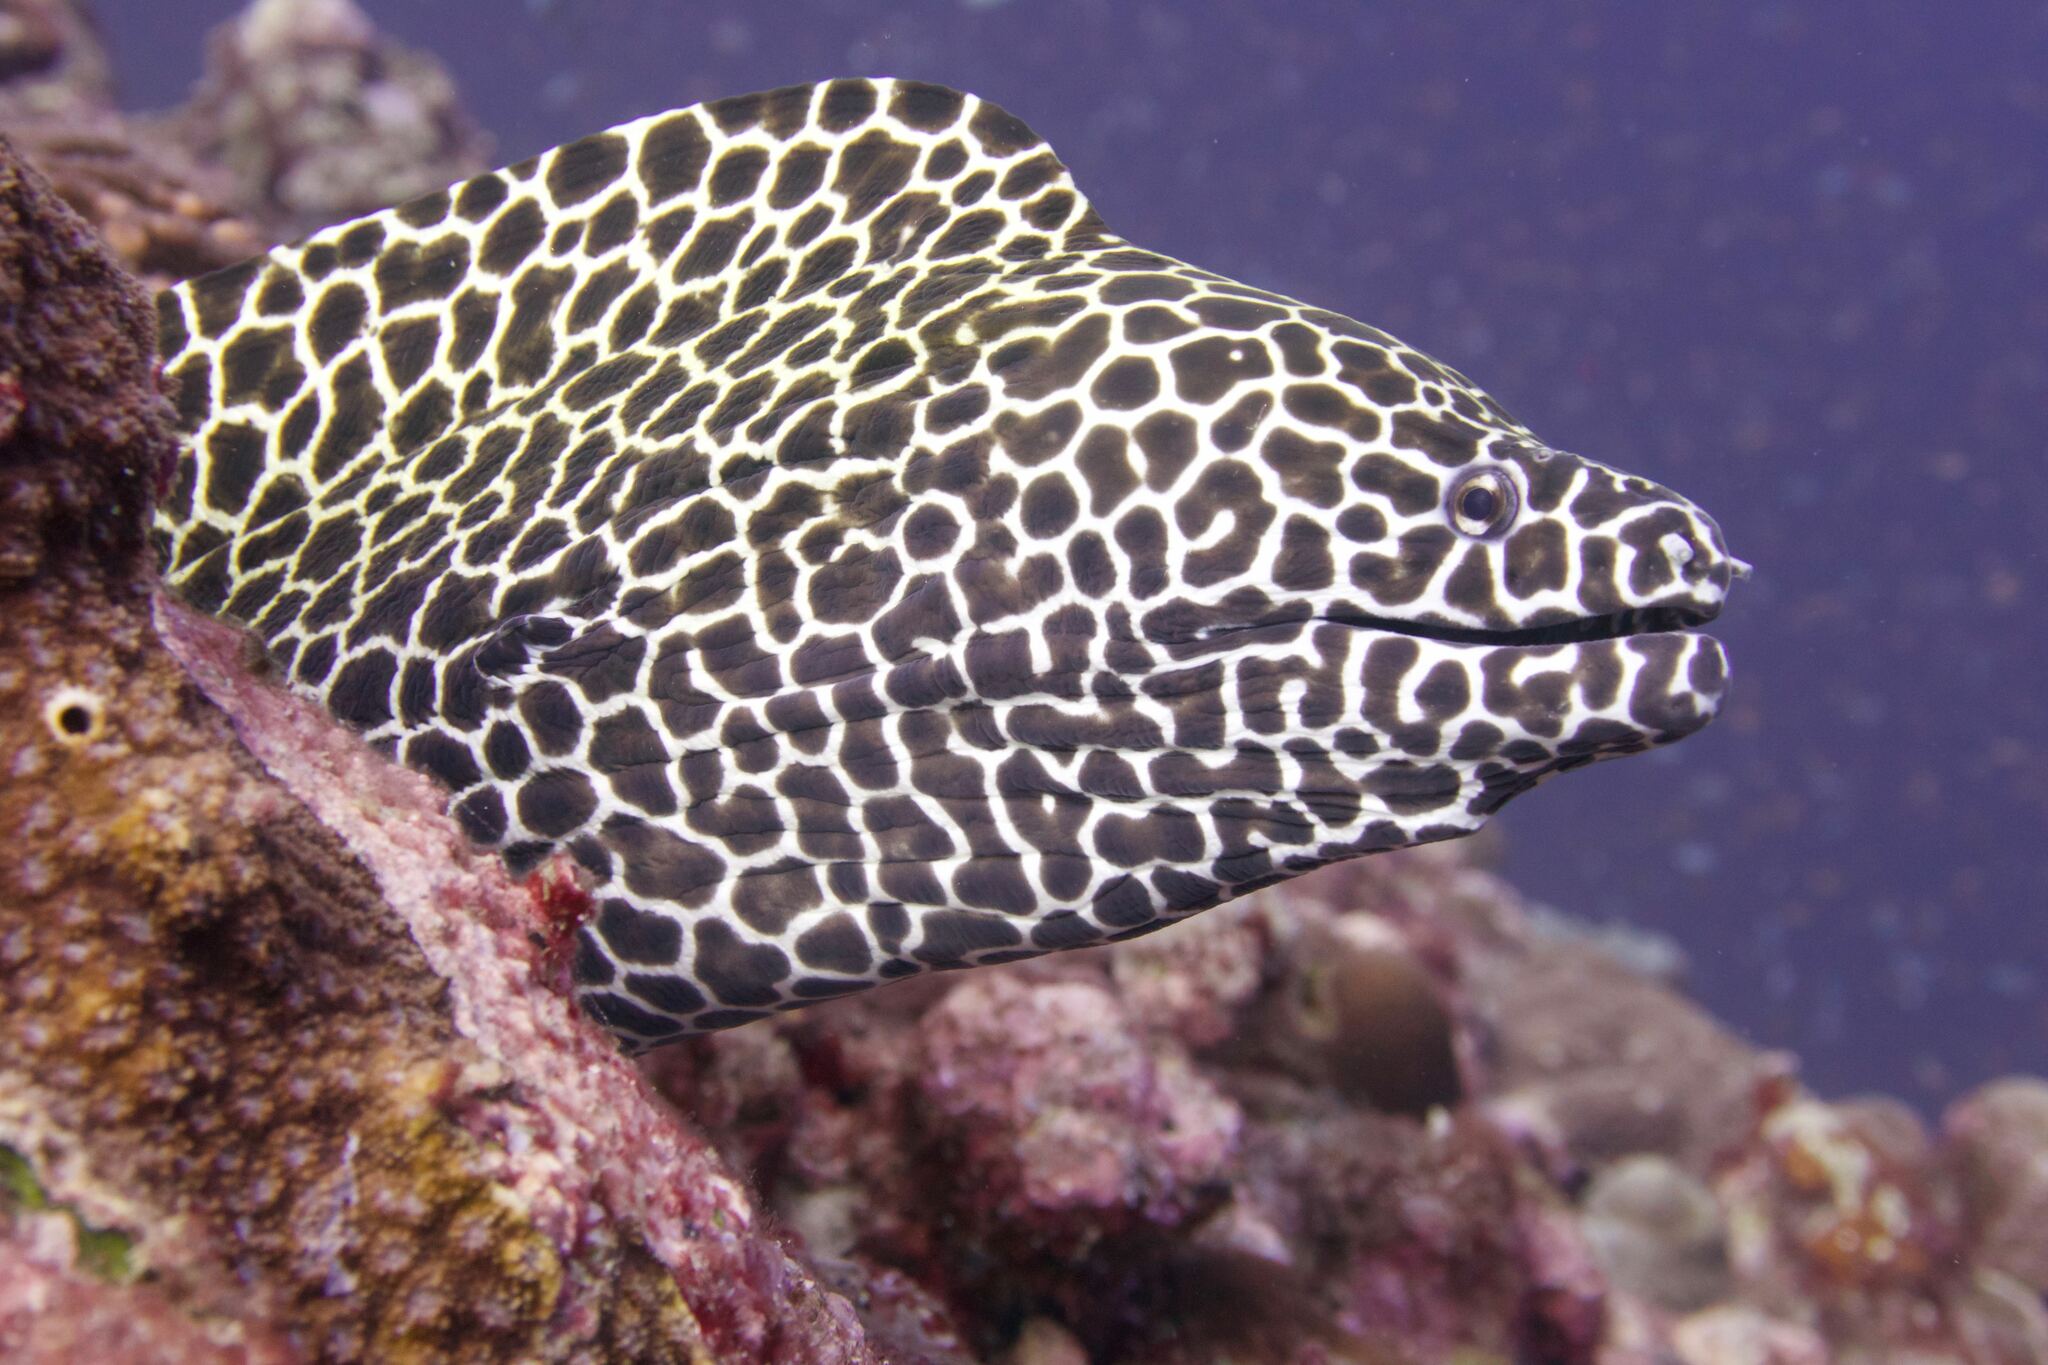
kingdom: Animalia
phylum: Chordata
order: Anguilliformes
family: Muraenidae
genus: Gymnothorax
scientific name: Gymnothorax favagineus
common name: Honeycomb moray
